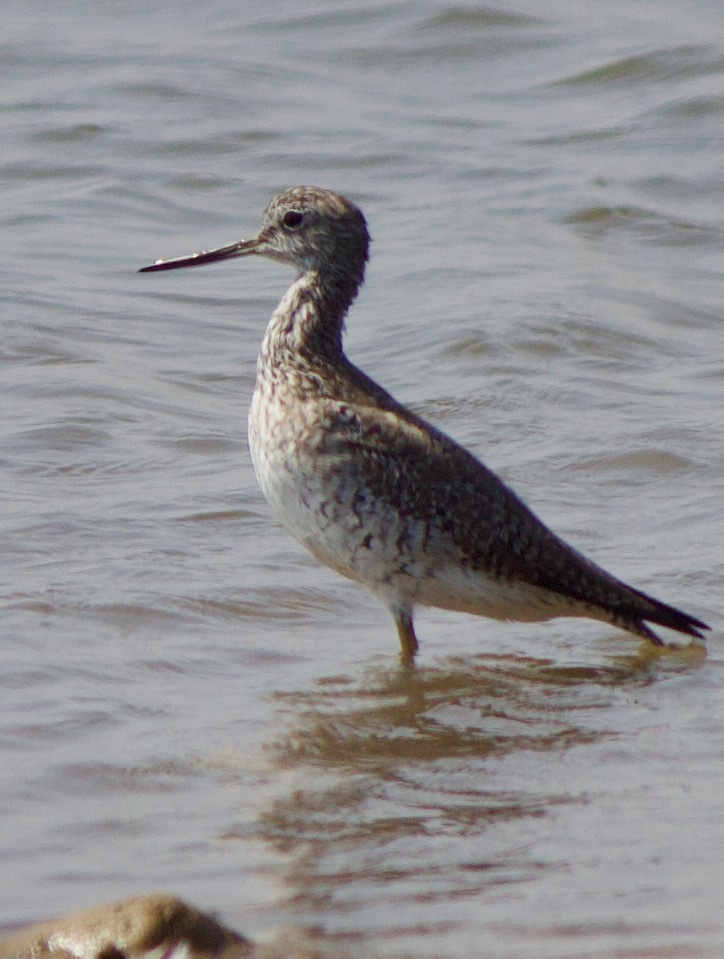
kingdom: Animalia
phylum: Chordata
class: Aves
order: Charadriiformes
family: Scolopacidae
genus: Tringa
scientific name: Tringa melanoleuca
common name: Greater yellowlegs
